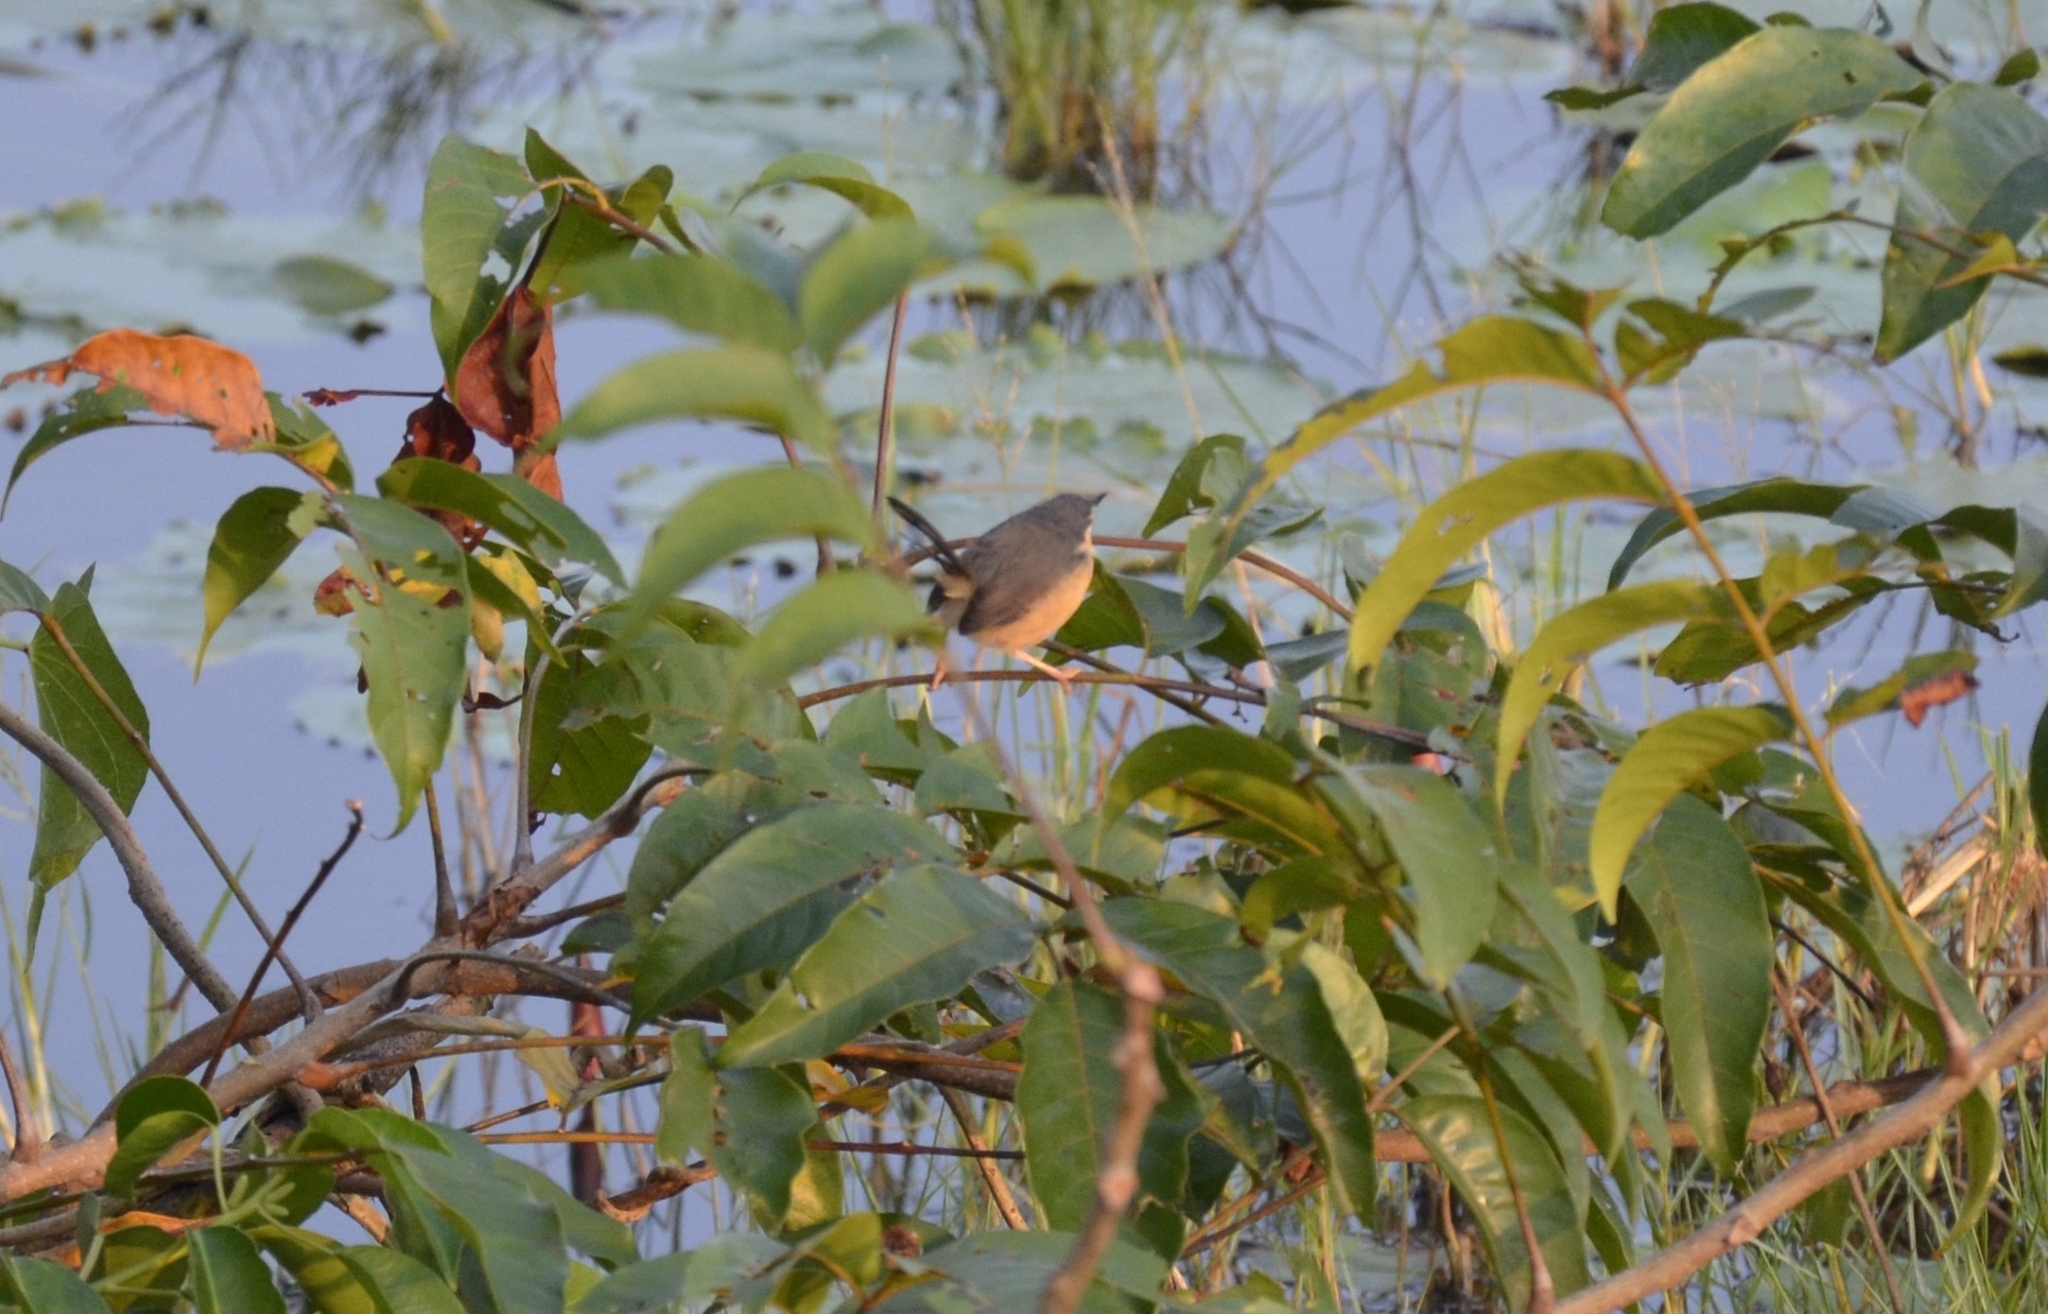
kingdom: Animalia
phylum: Chordata
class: Aves
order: Passeriformes
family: Cisticolidae
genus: Prinia
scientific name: Prinia socialis
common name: Ashy prinia
